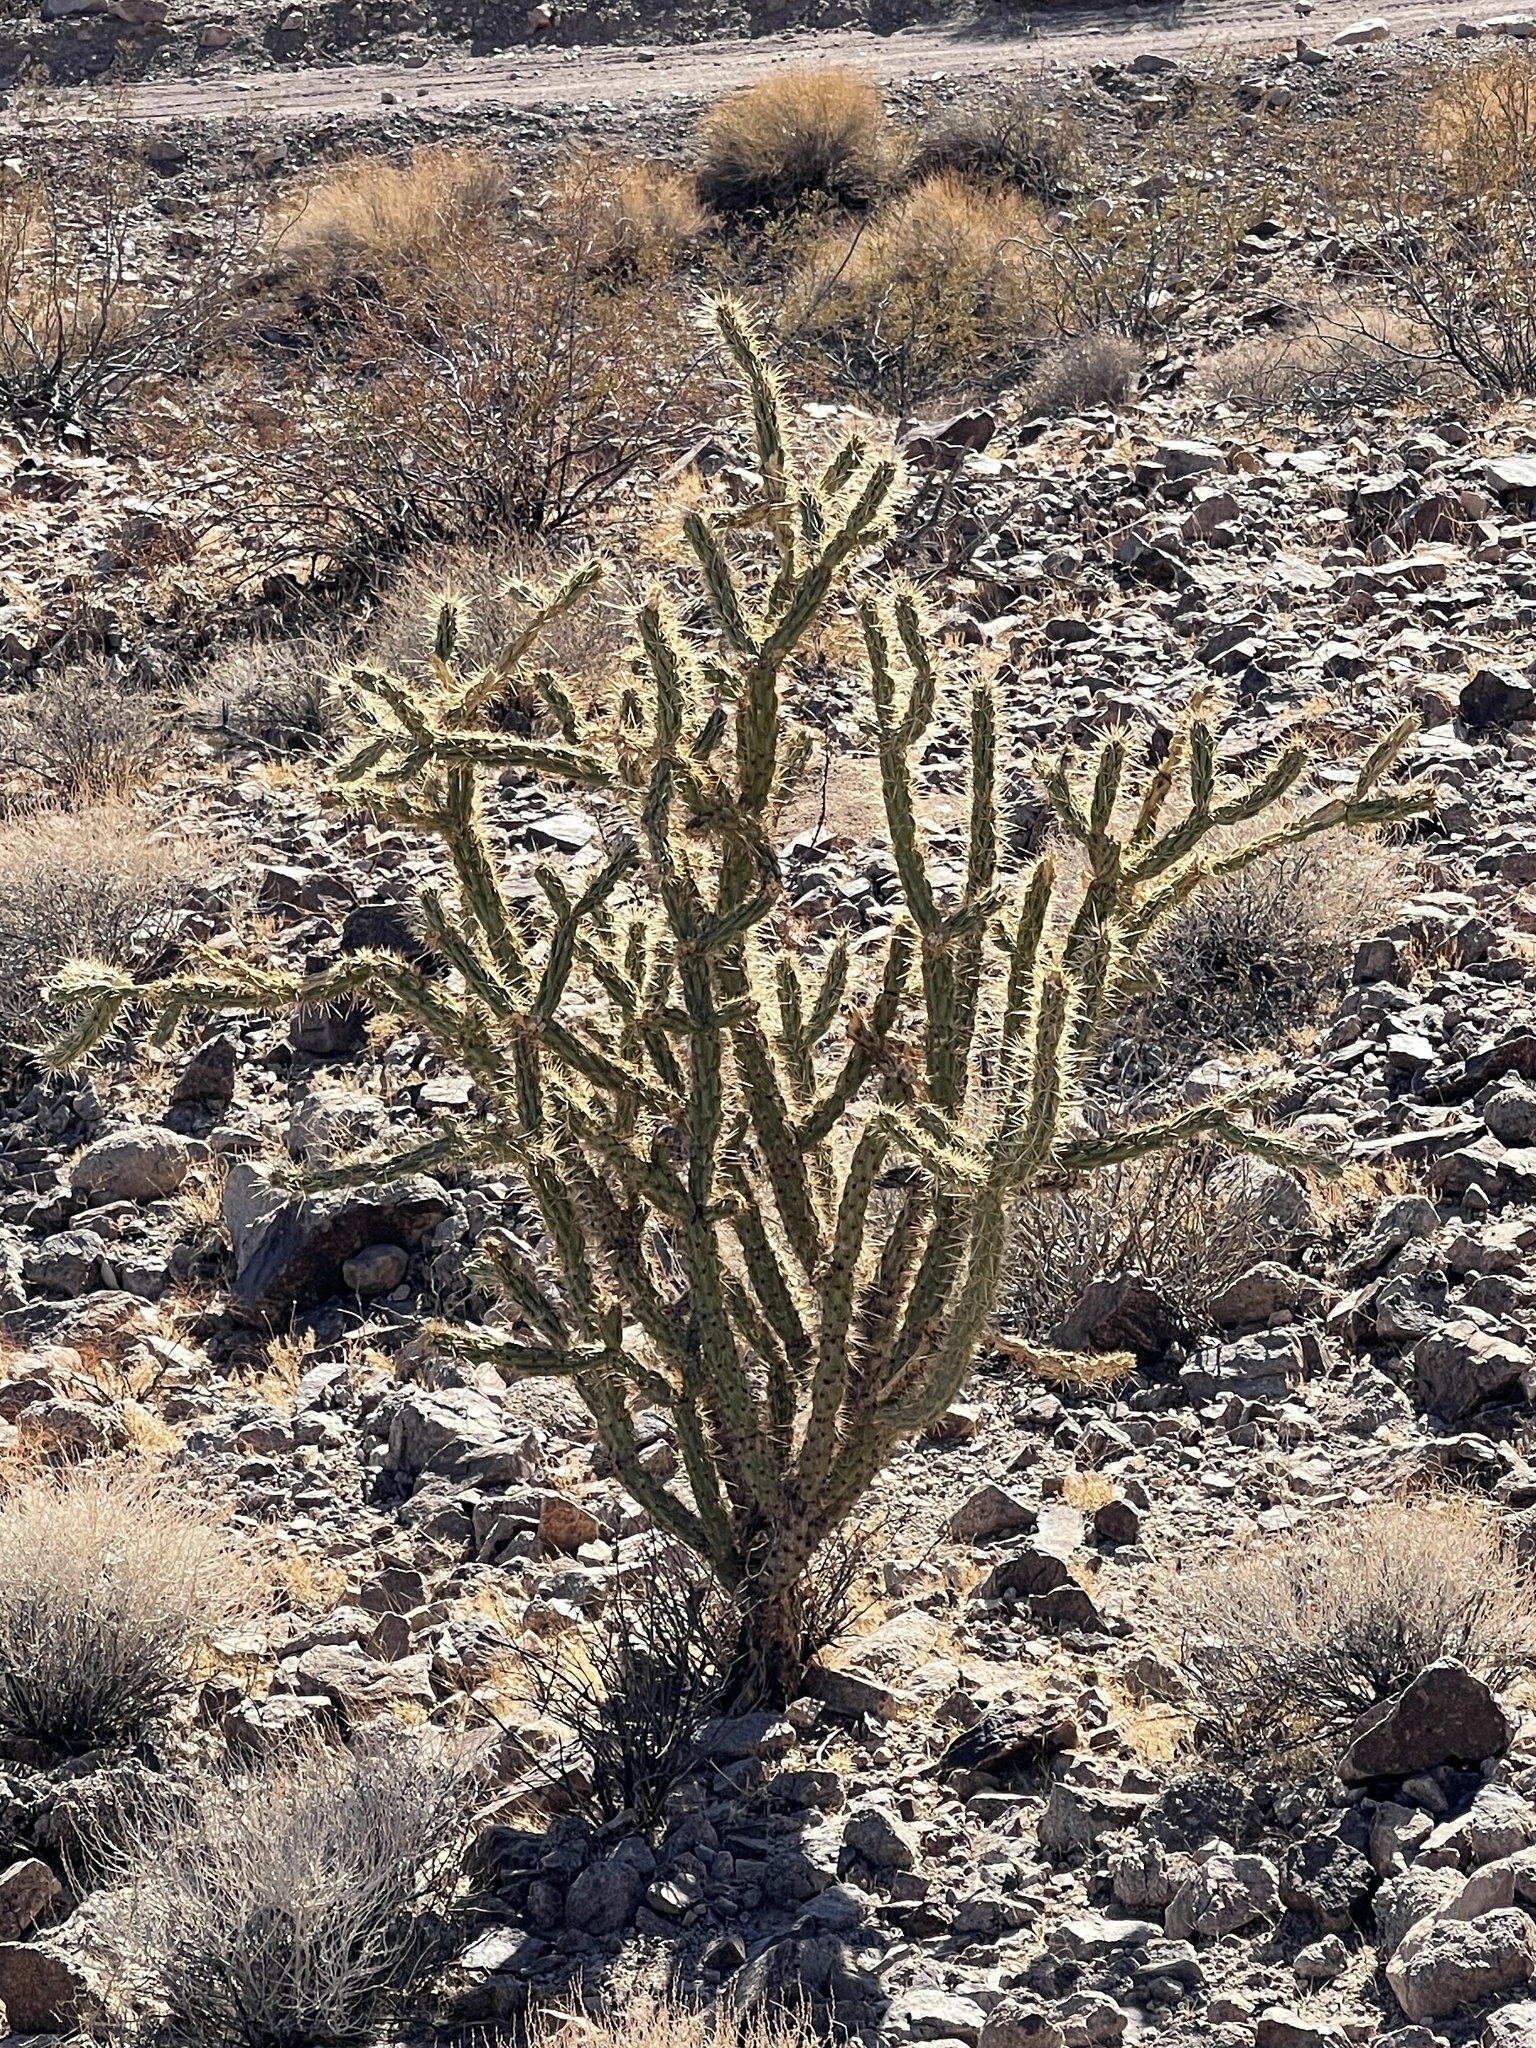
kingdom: Plantae
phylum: Tracheophyta
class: Magnoliopsida
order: Caryophyllales
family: Cactaceae
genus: Cylindropuntia
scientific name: Cylindropuntia acanthocarpa
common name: Buckhorn cholla
